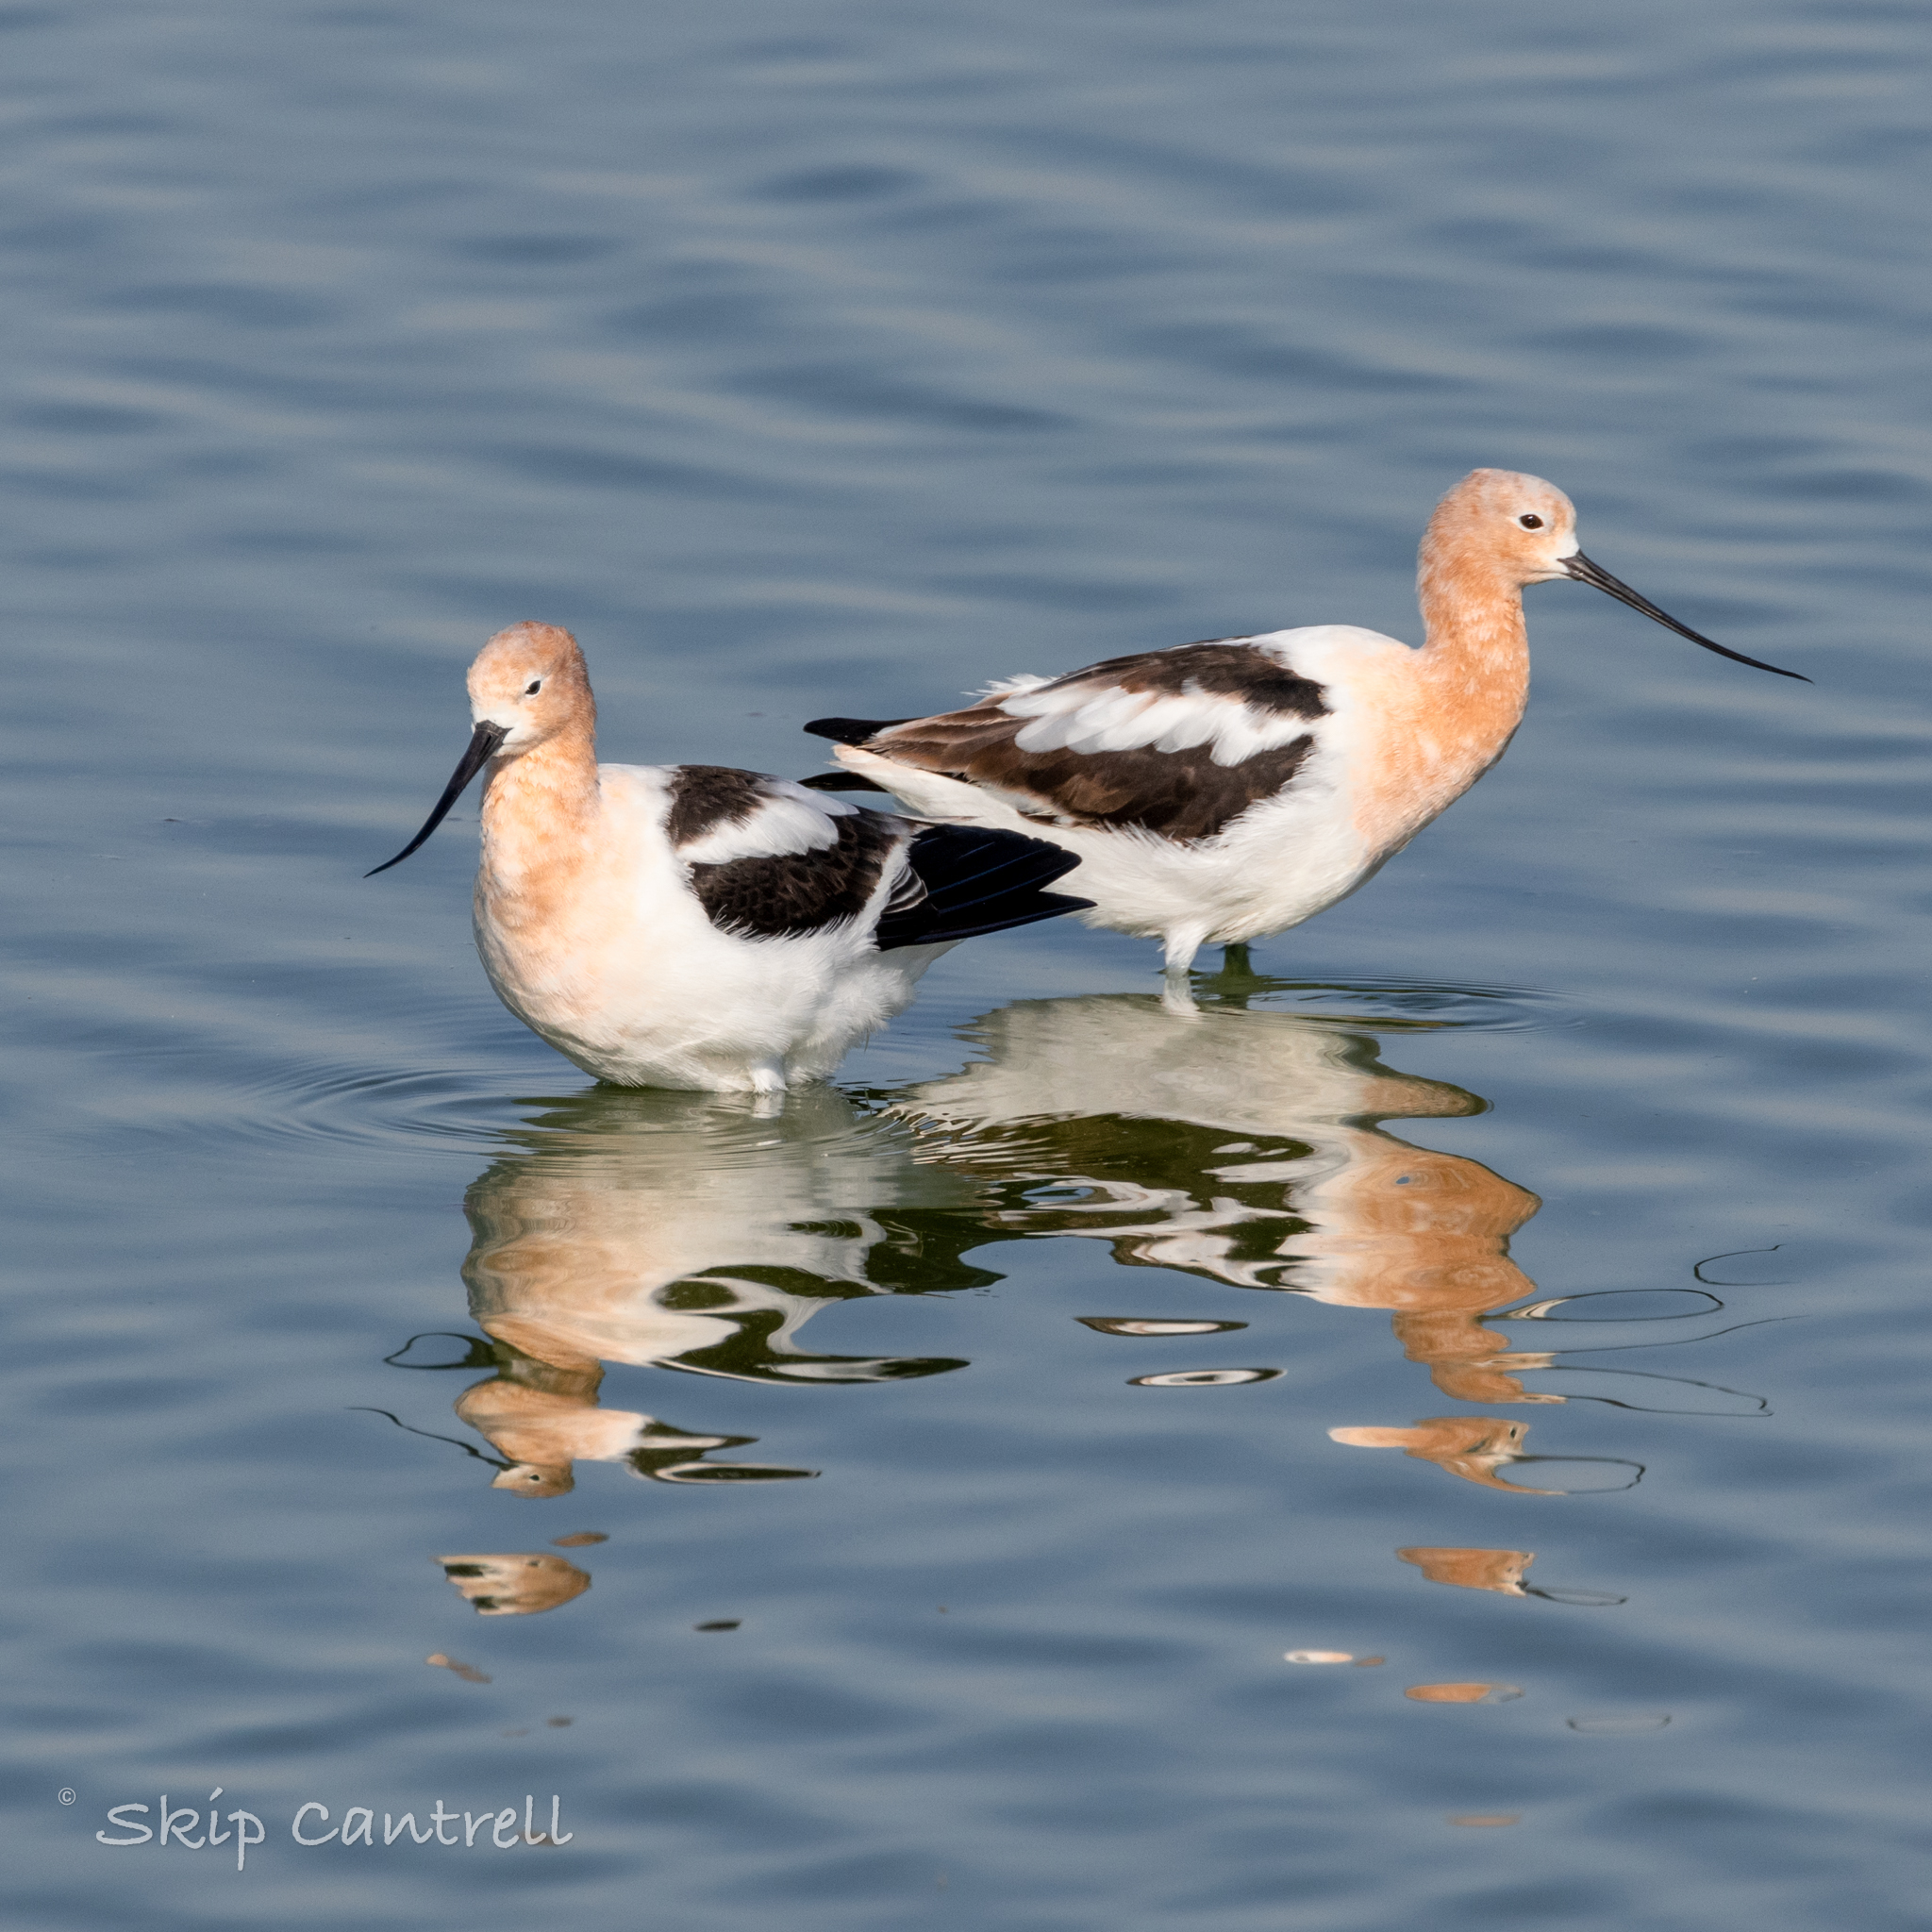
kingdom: Animalia
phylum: Chordata
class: Aves
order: Charadriiformes
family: Recurvirostridae
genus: Recurvirostra
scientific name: Recurvirostra americana
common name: American avocet
